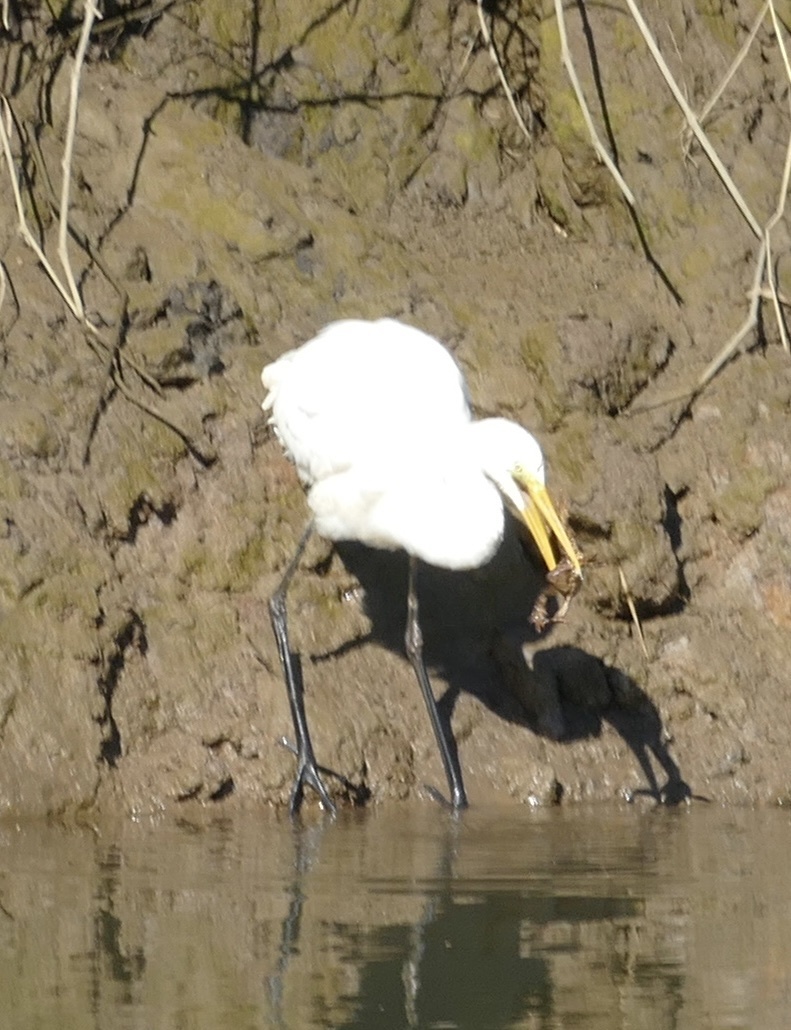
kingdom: Animalia
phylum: Chordata
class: Aves
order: Pelecaniformes
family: Ardeidae
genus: Egretta
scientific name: Egretta intermedia
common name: Intermediate egret
